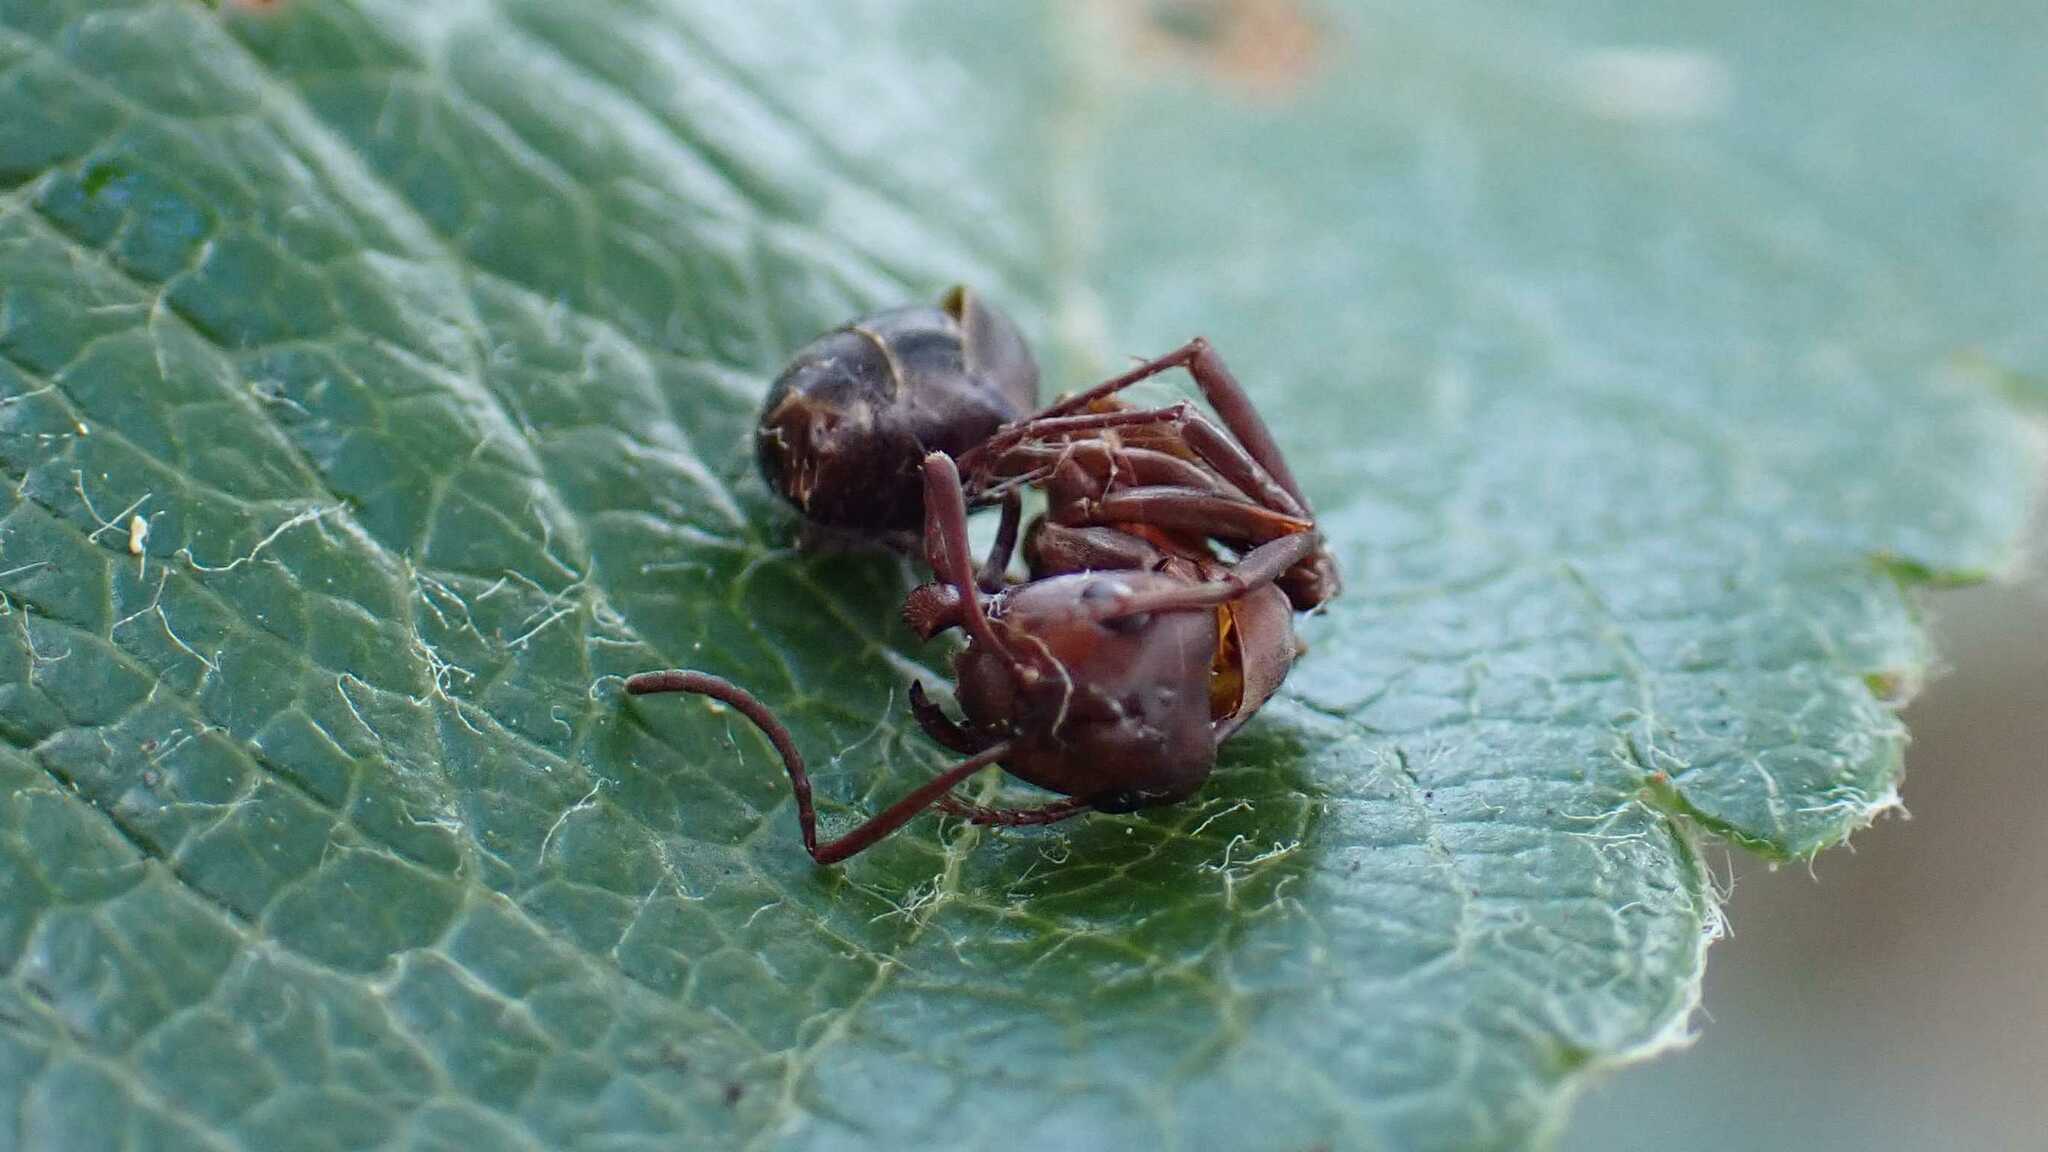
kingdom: Animalia
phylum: Arthropoda
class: Insecta
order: Hymenoptera
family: Formicidae
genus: Formica
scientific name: Formica sanguinea
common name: Blood-red ant
